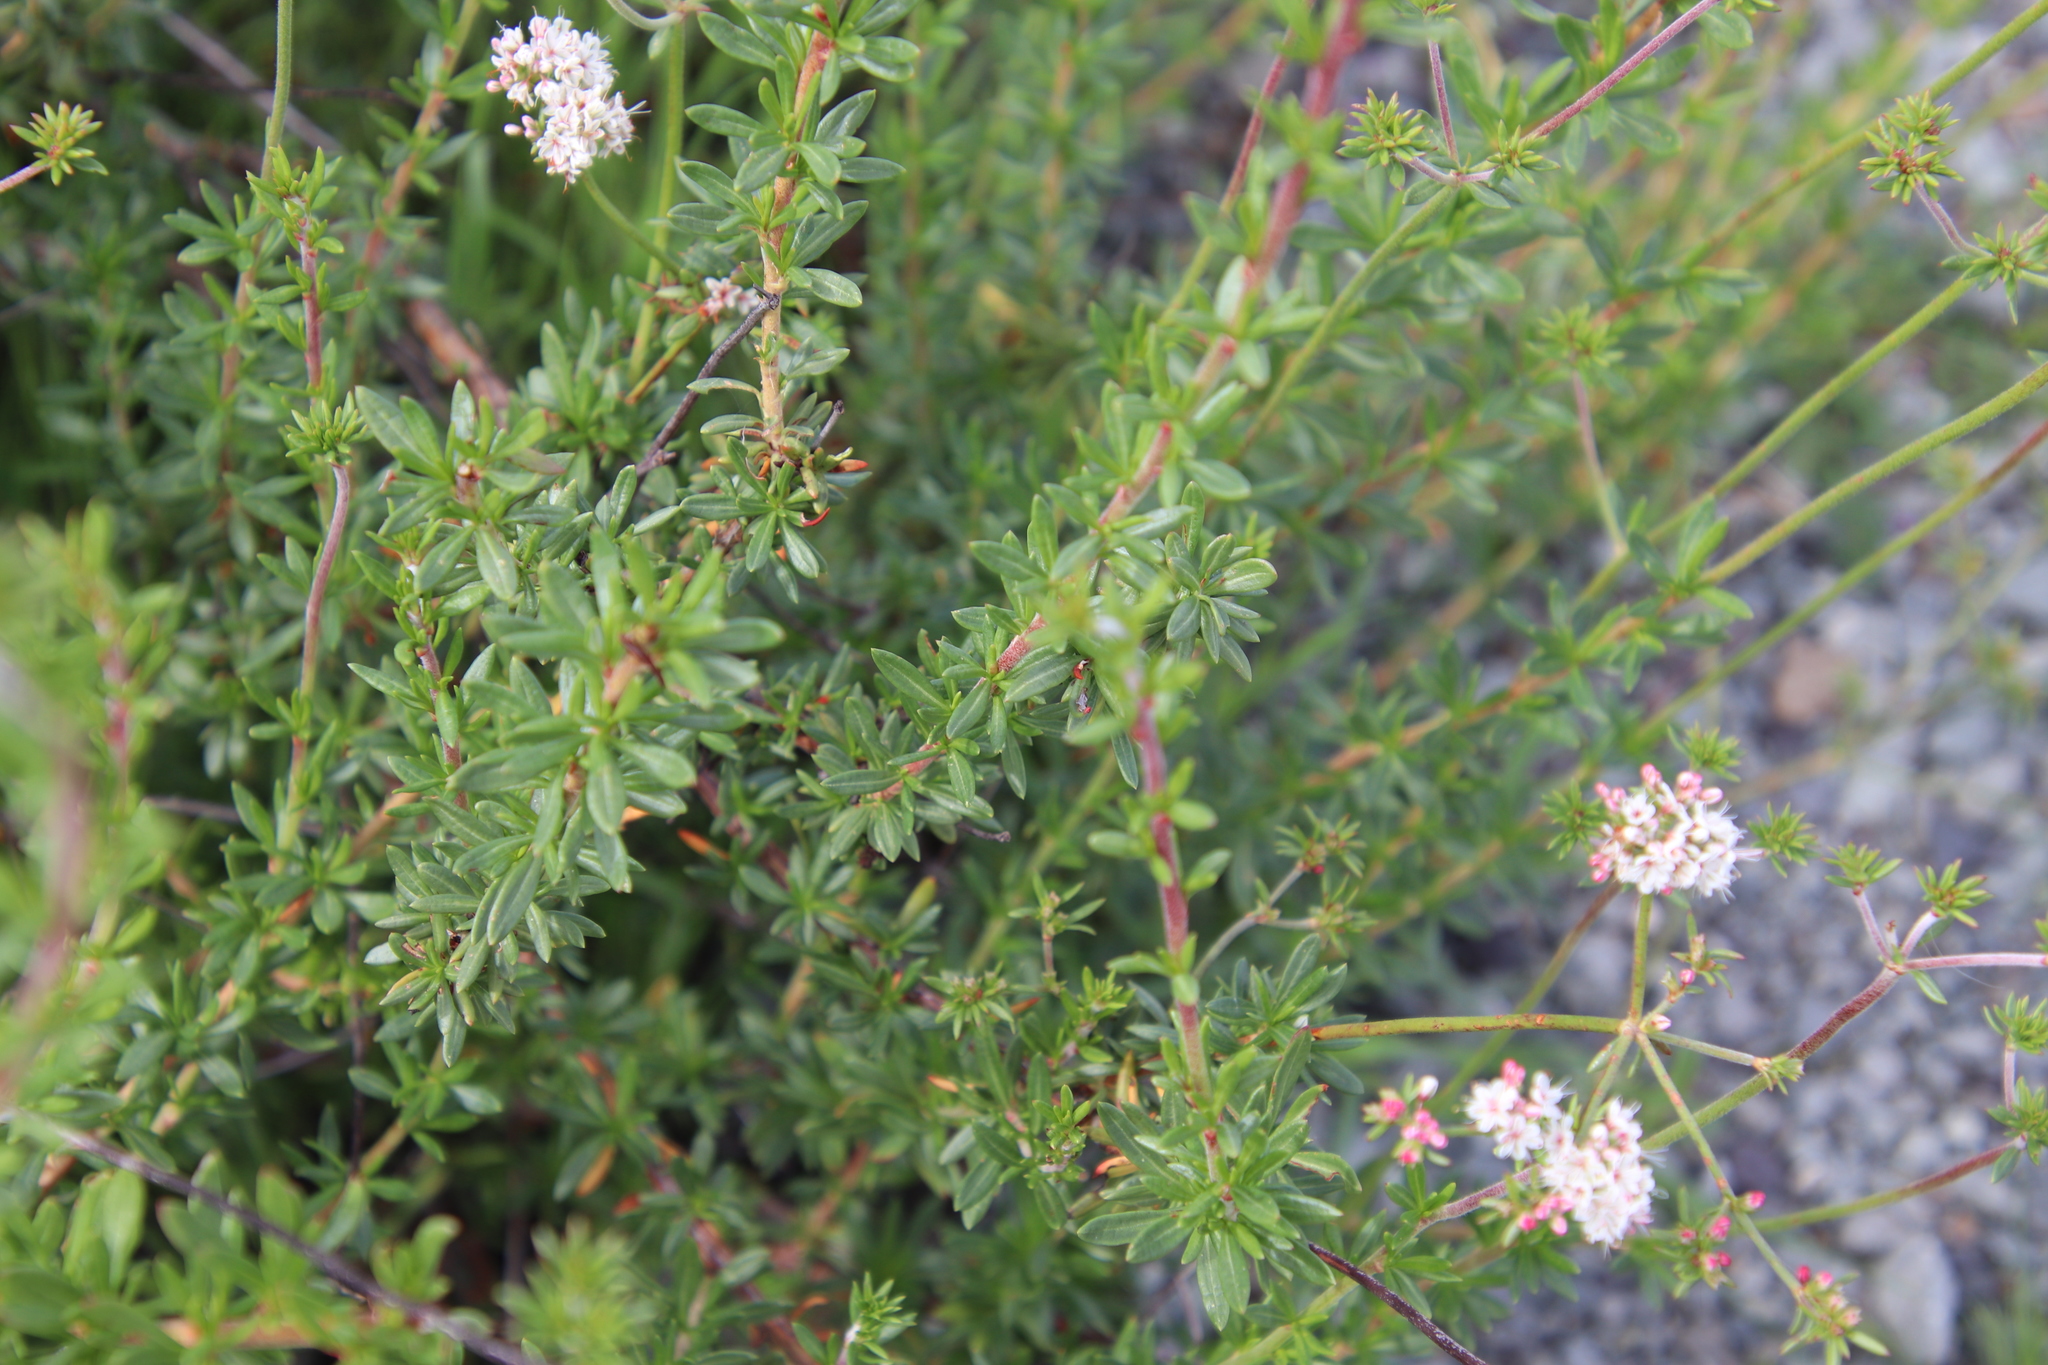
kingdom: Plantae
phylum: Tracheophyta
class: Magnoliopsida
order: Caryophyllales
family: Polygonaceae
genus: Eriogonum
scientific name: Eriogonum fasciculatum
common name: California wild buckwheat
